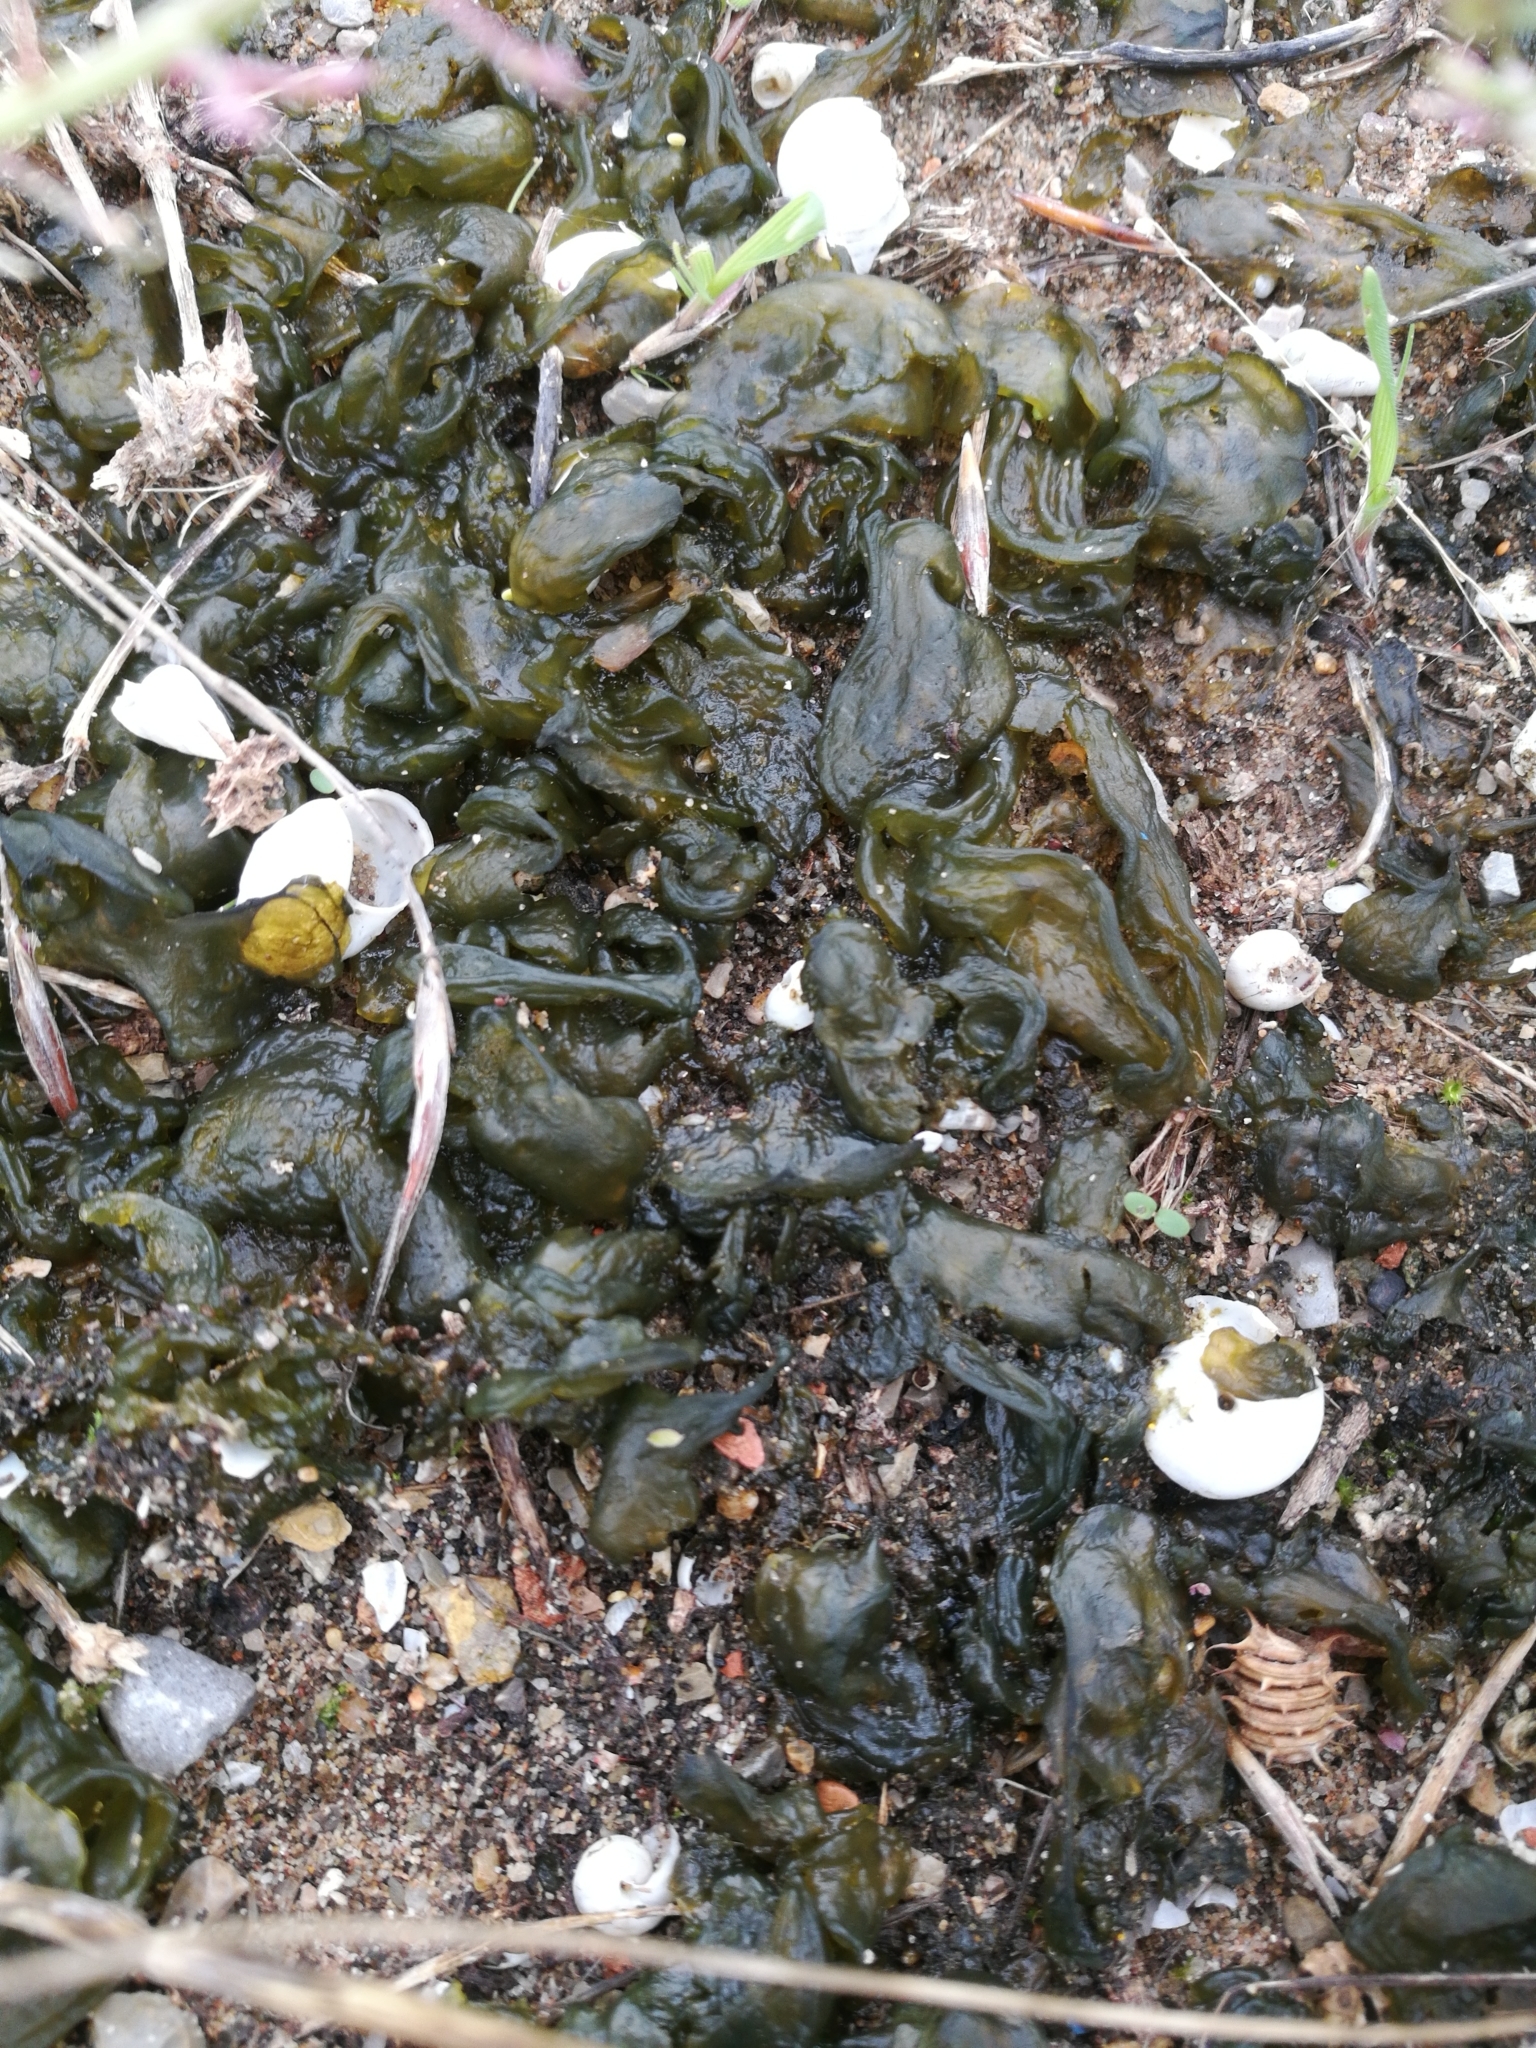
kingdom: Bacteria
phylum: Cyanobacteria
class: Cyanobacteriia
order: Cyanobacteriales
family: Nostocaceae
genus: Nostoc
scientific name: Nostoc commune
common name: Star jelly
